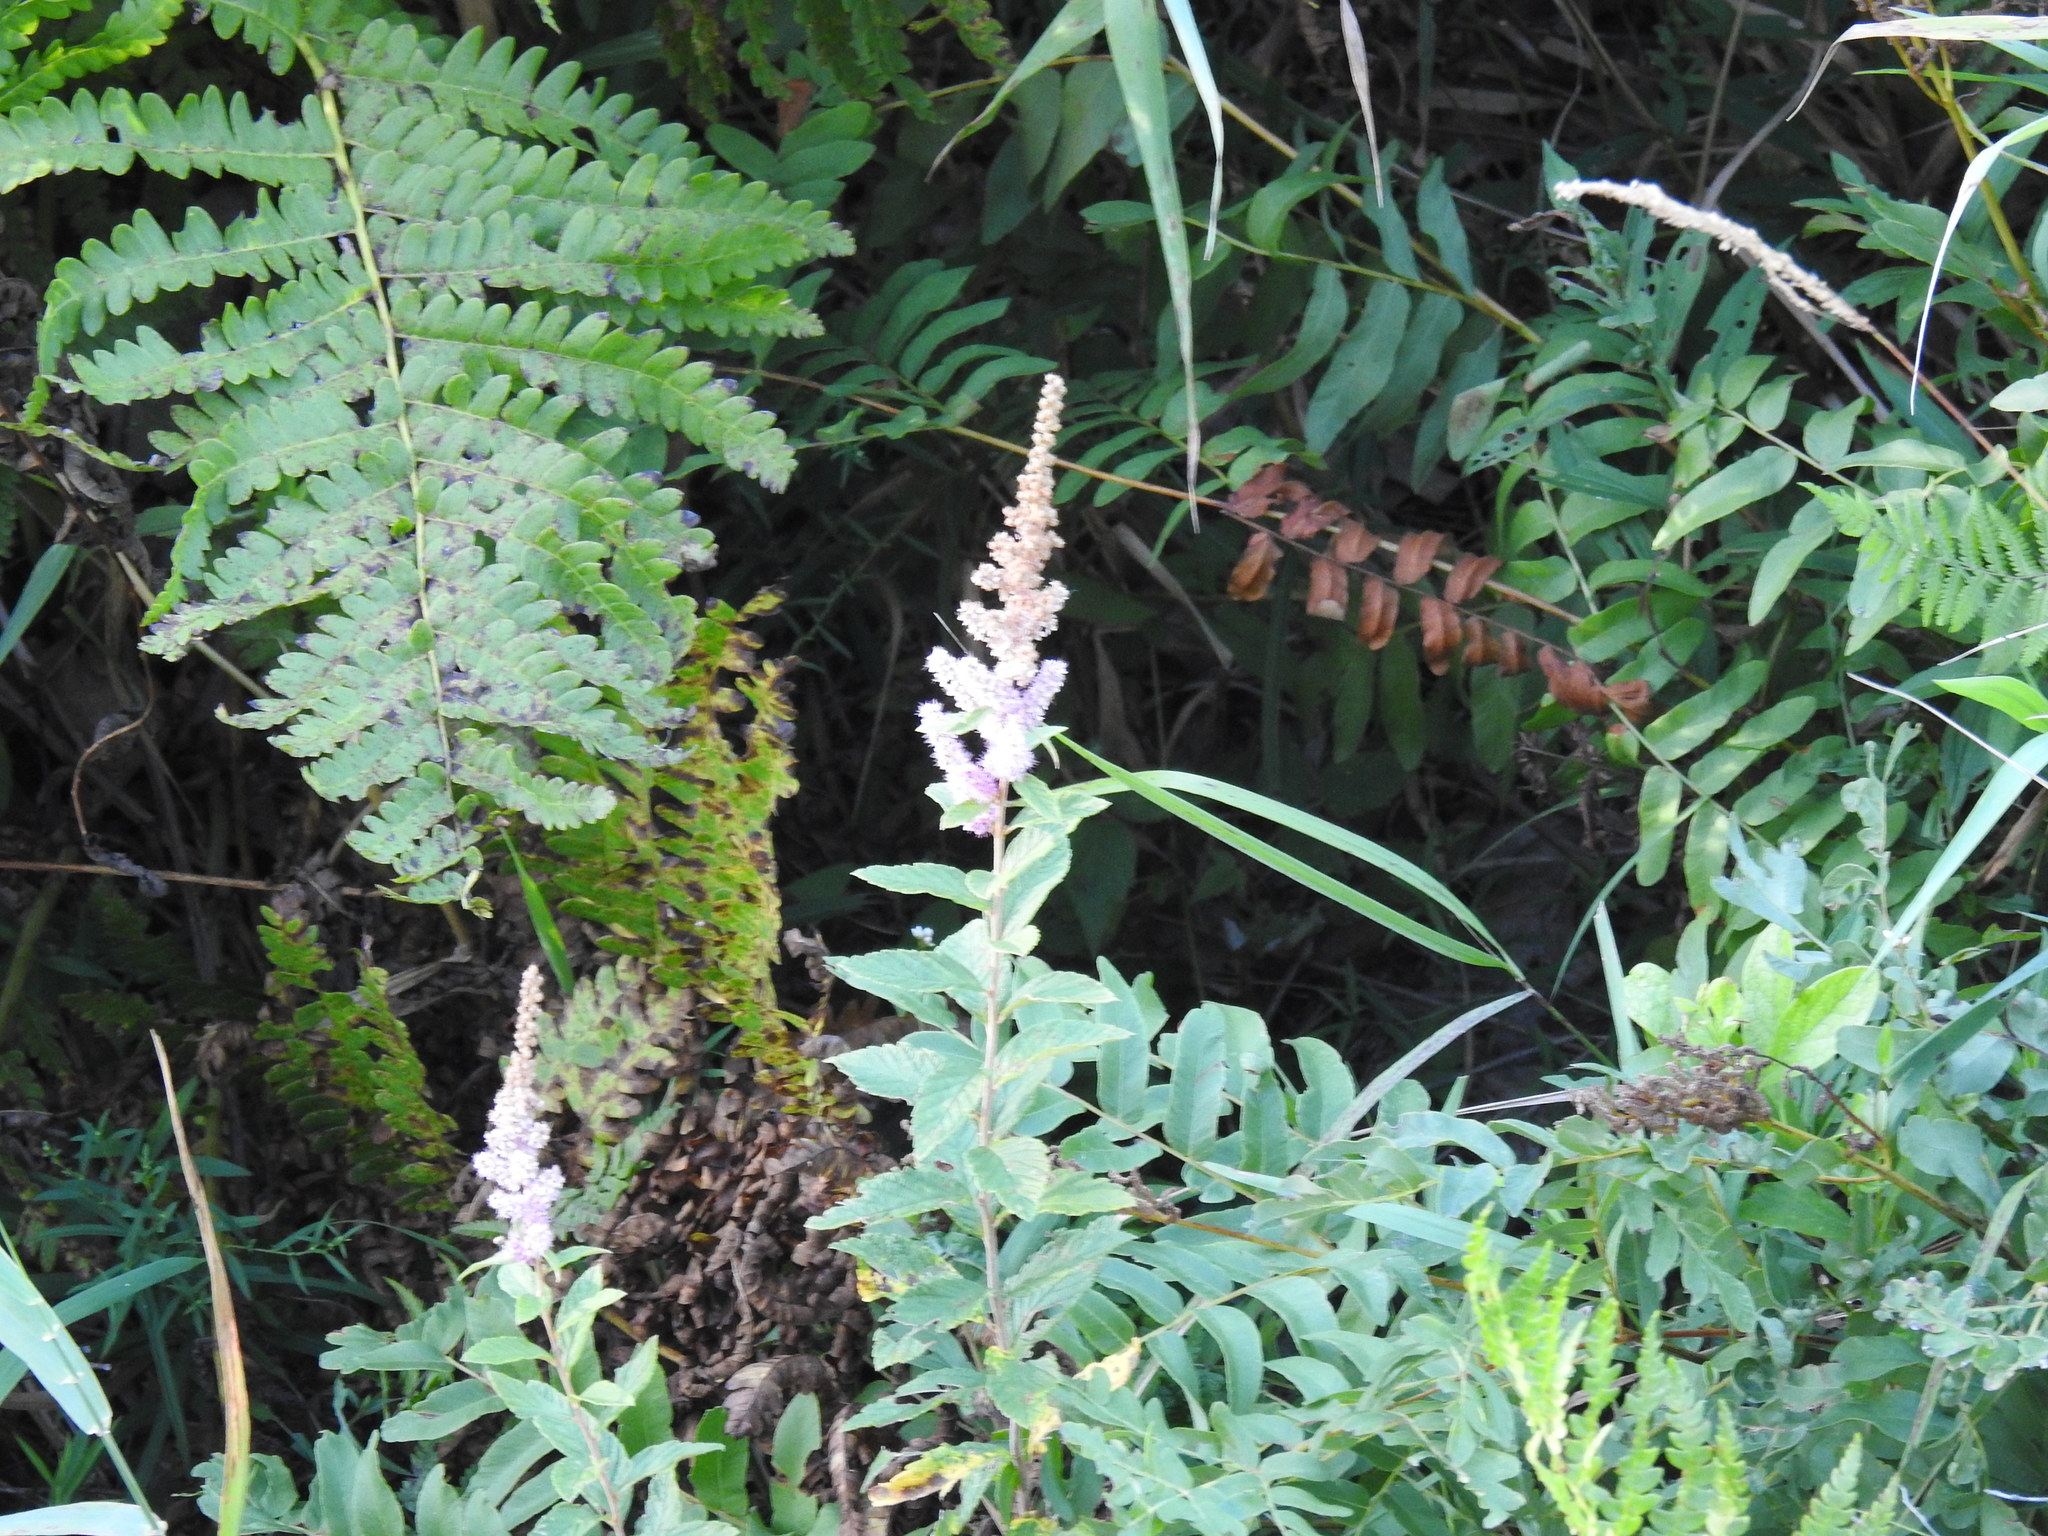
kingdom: Plantae
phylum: Tracheophyta
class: Magnoliopsida
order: Rosales
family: Rosaceae
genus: Spiraea
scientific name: Spiraea tomentosa
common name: Hardhack
